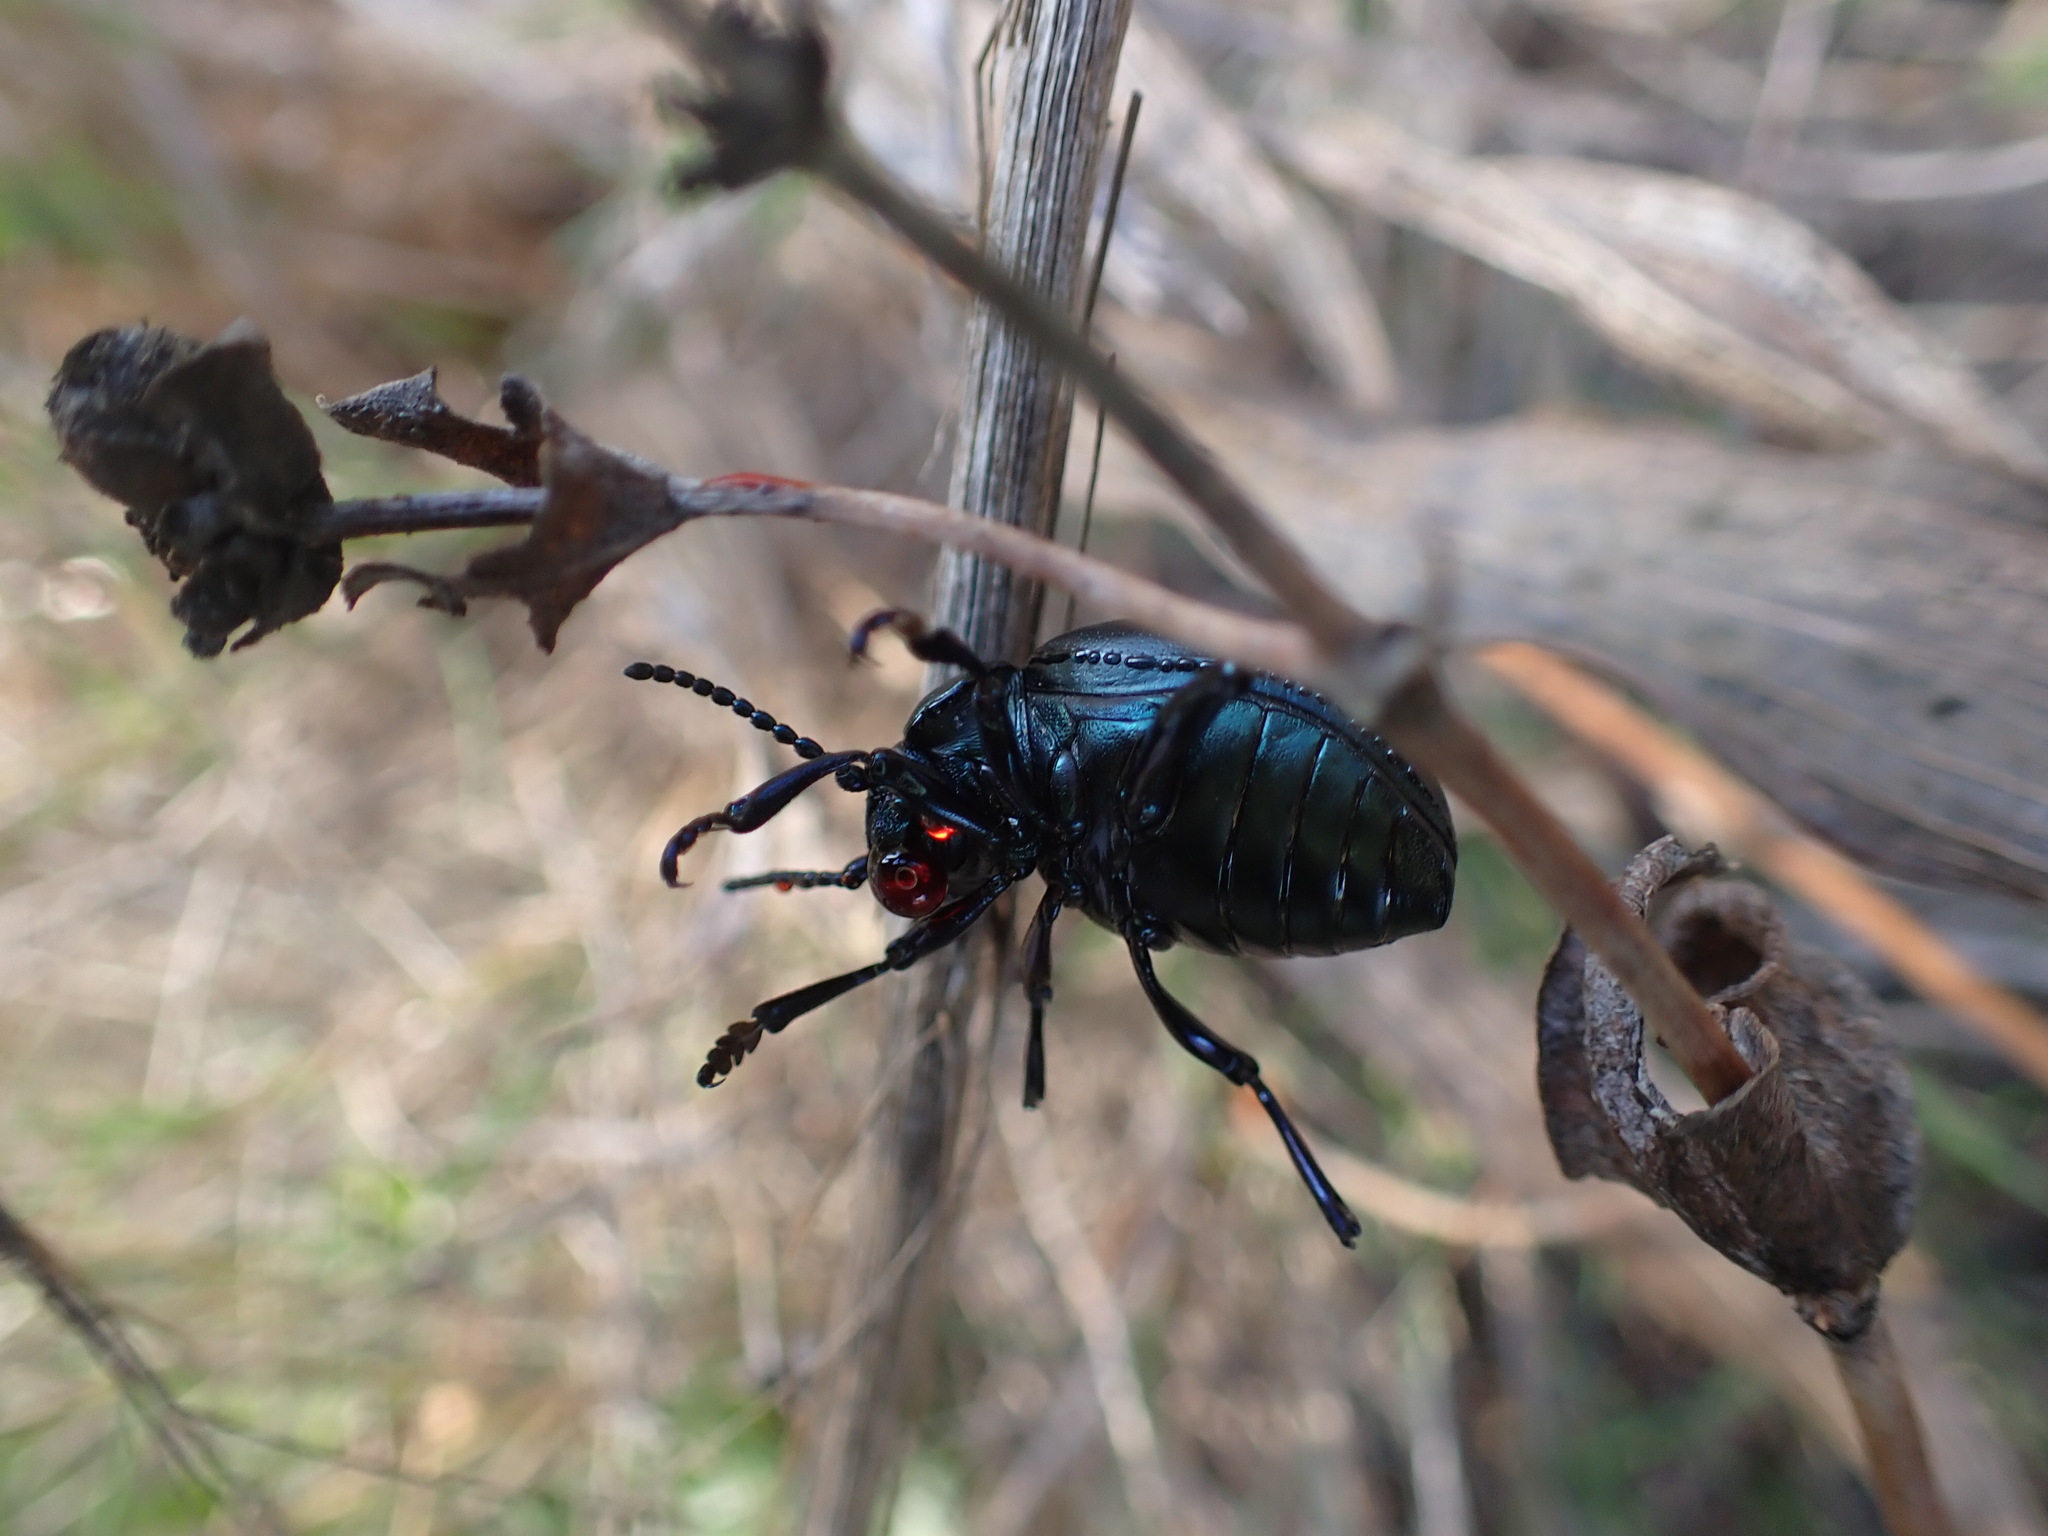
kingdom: Animalia
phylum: Arthropoda
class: Insecta
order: Coleoptera
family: Chrysomelidae
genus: Timarcha
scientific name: Timarcha goettingensis
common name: Small bloody-nosed beetle
